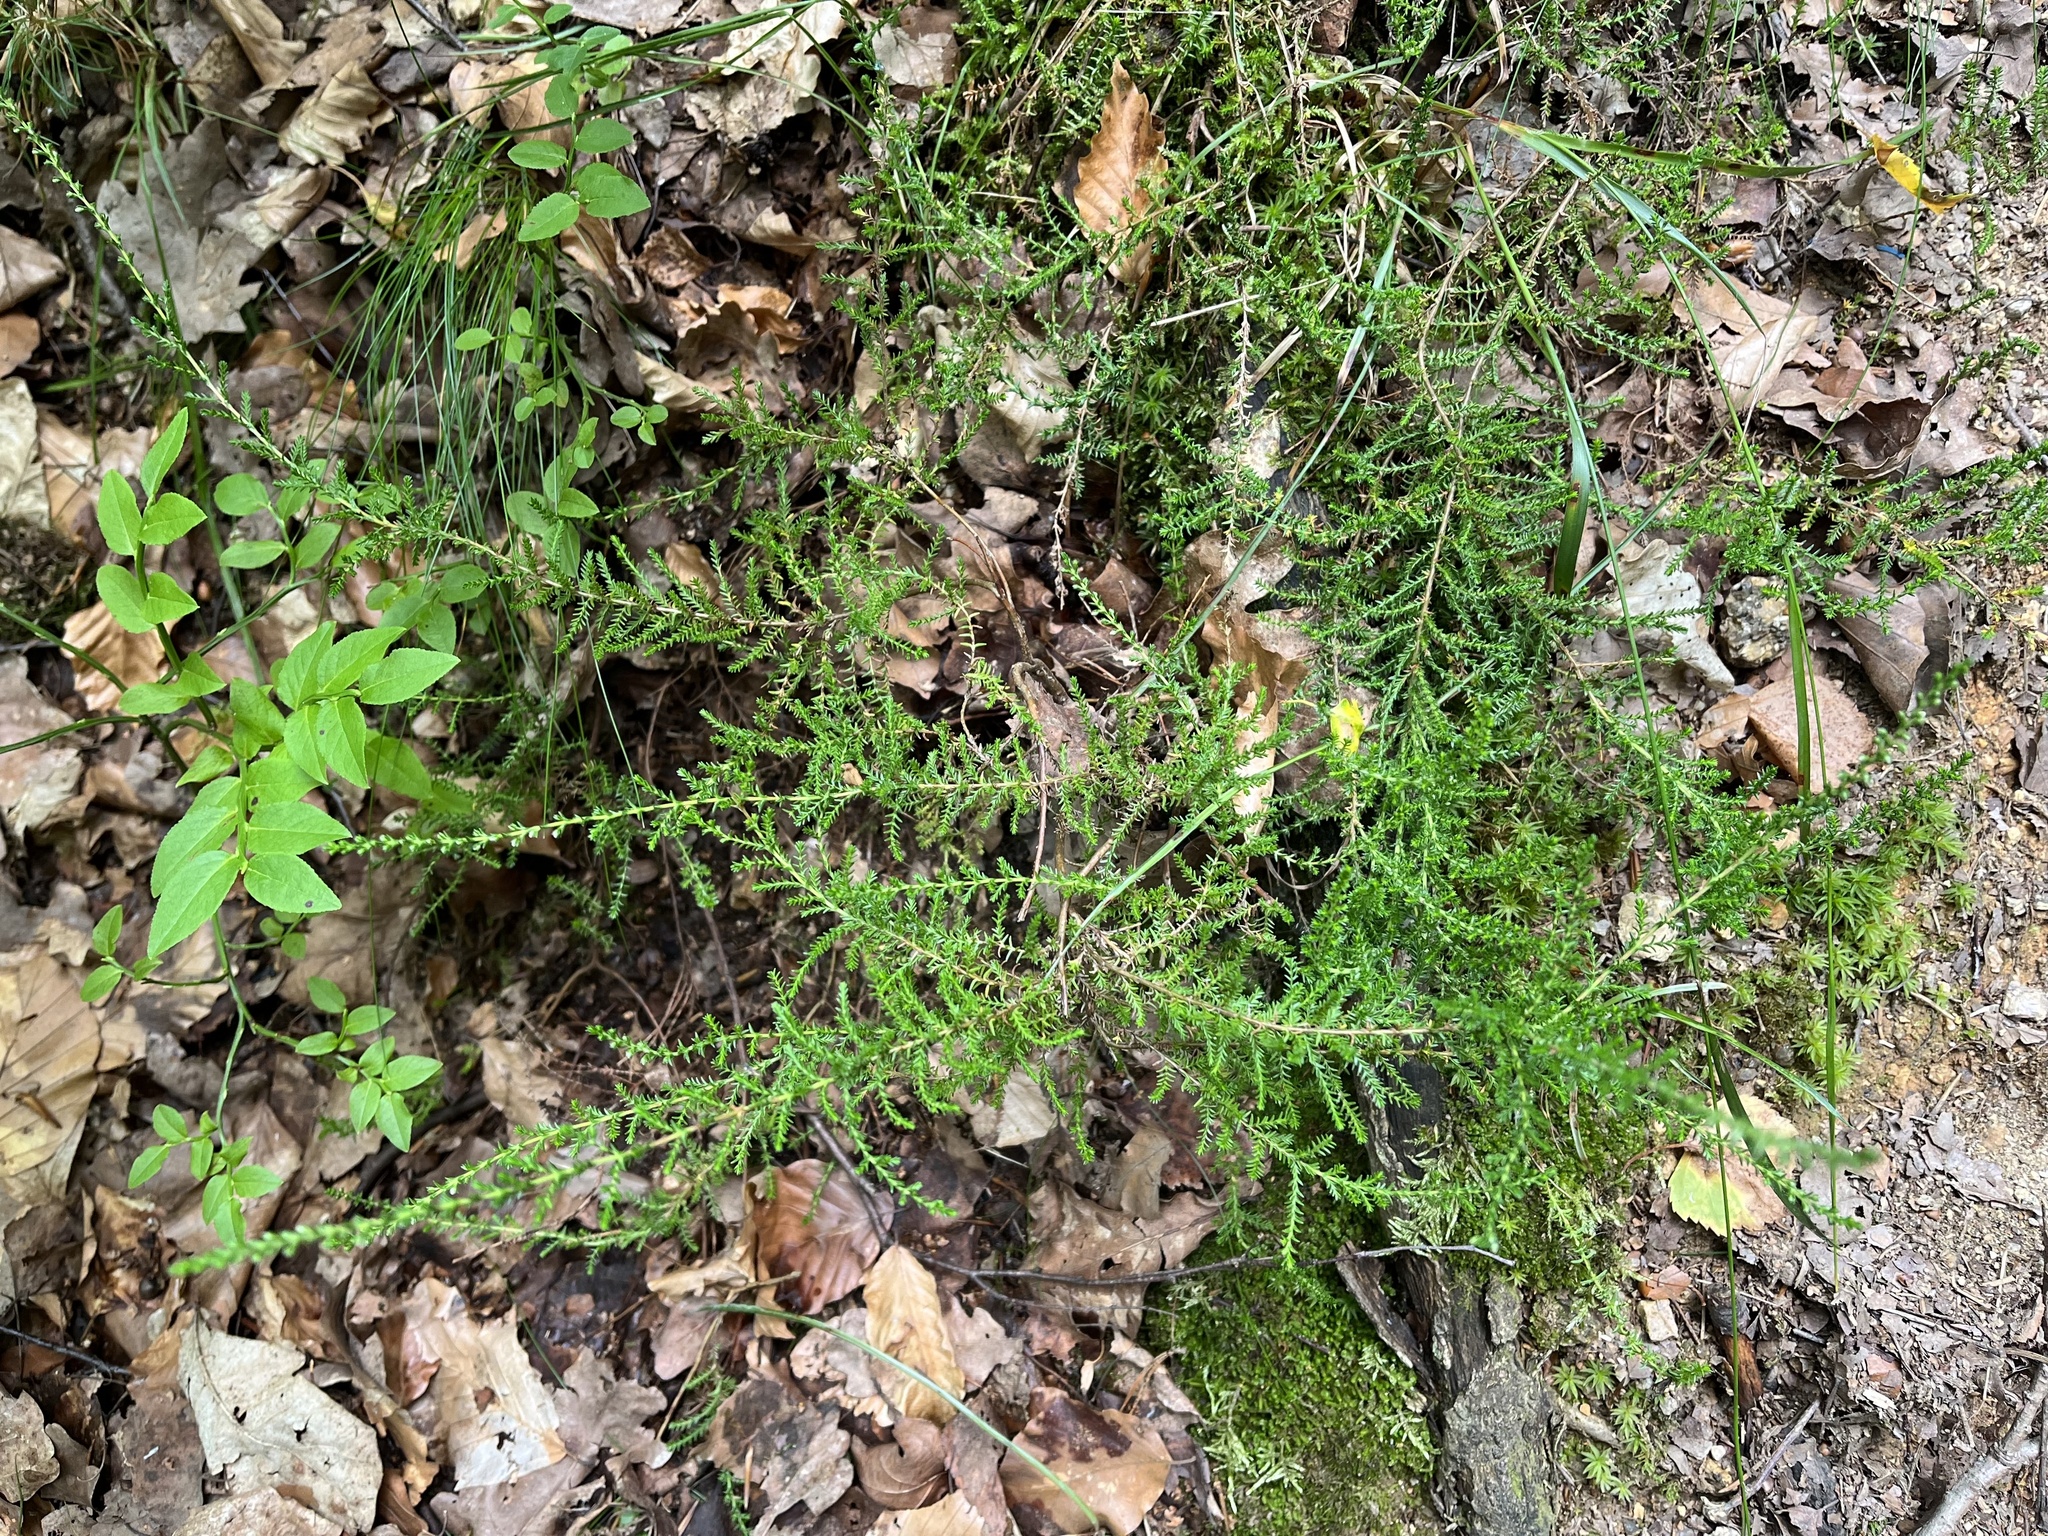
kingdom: Plantae
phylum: Tracheophyta
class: Magnoliopsida
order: Ericales
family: Ericaceae
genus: Calluna
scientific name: Calluna vulgaris
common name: Heather
